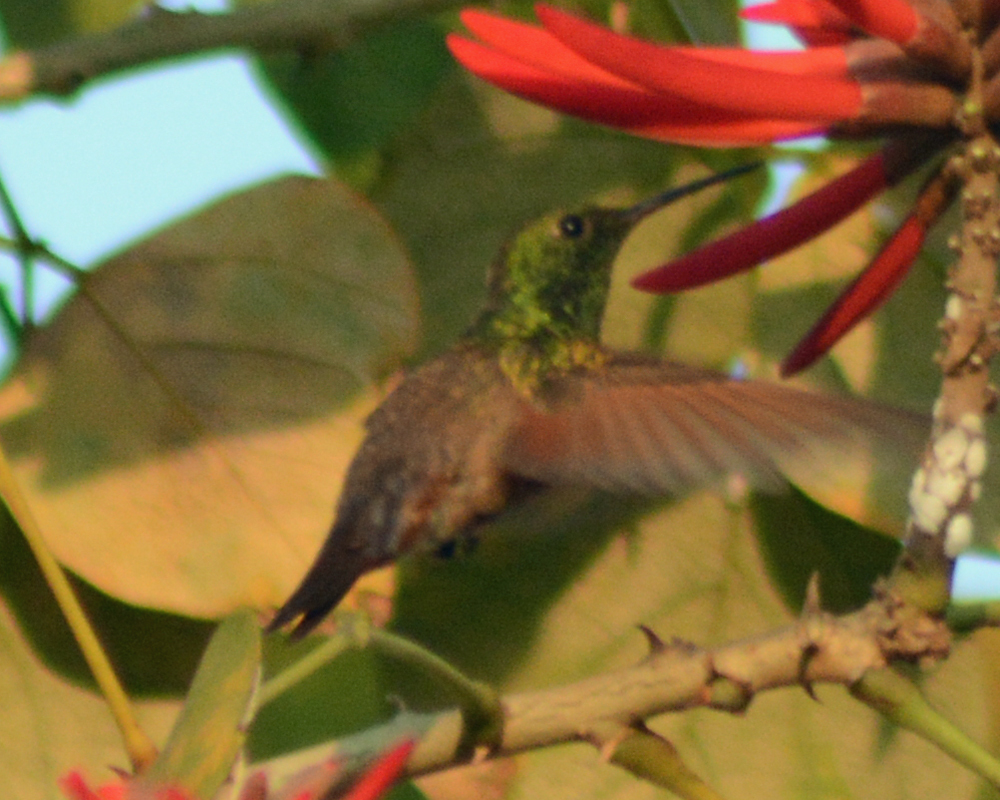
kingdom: Animalia
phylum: Chordata
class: Aves
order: Apodiformes
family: Trochilidae
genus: Saucerottia
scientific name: Saucerottia beryllina
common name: Berylline hummingbird
